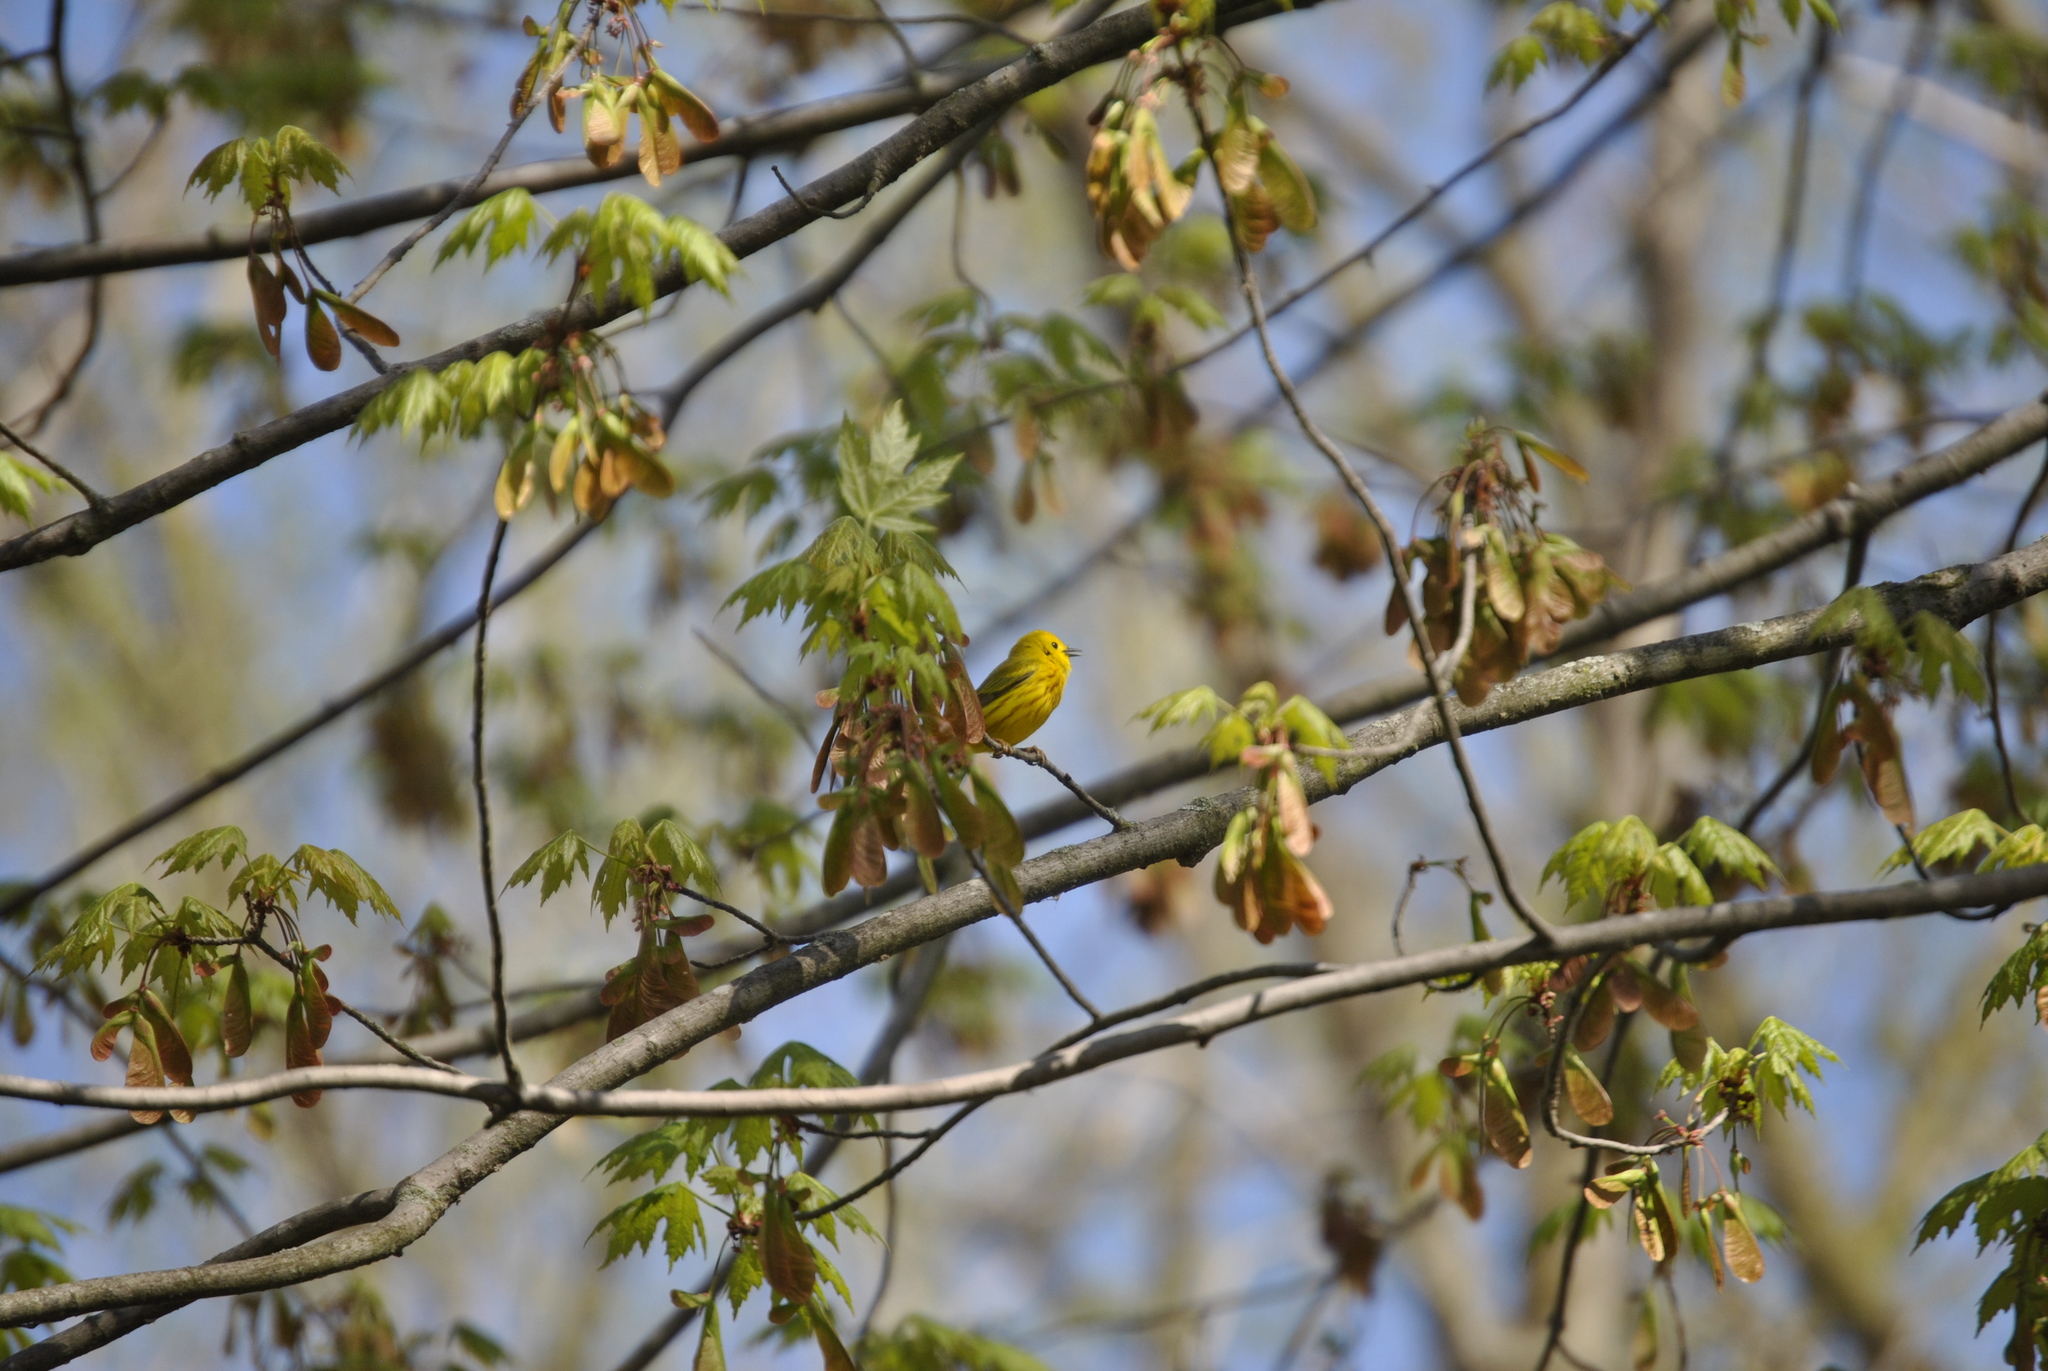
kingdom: Animalia
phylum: Chordata
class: Aves
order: Passeriformes
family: Parulidae
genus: Setophaga
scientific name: Setophaga petechia
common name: Yellow warbler
